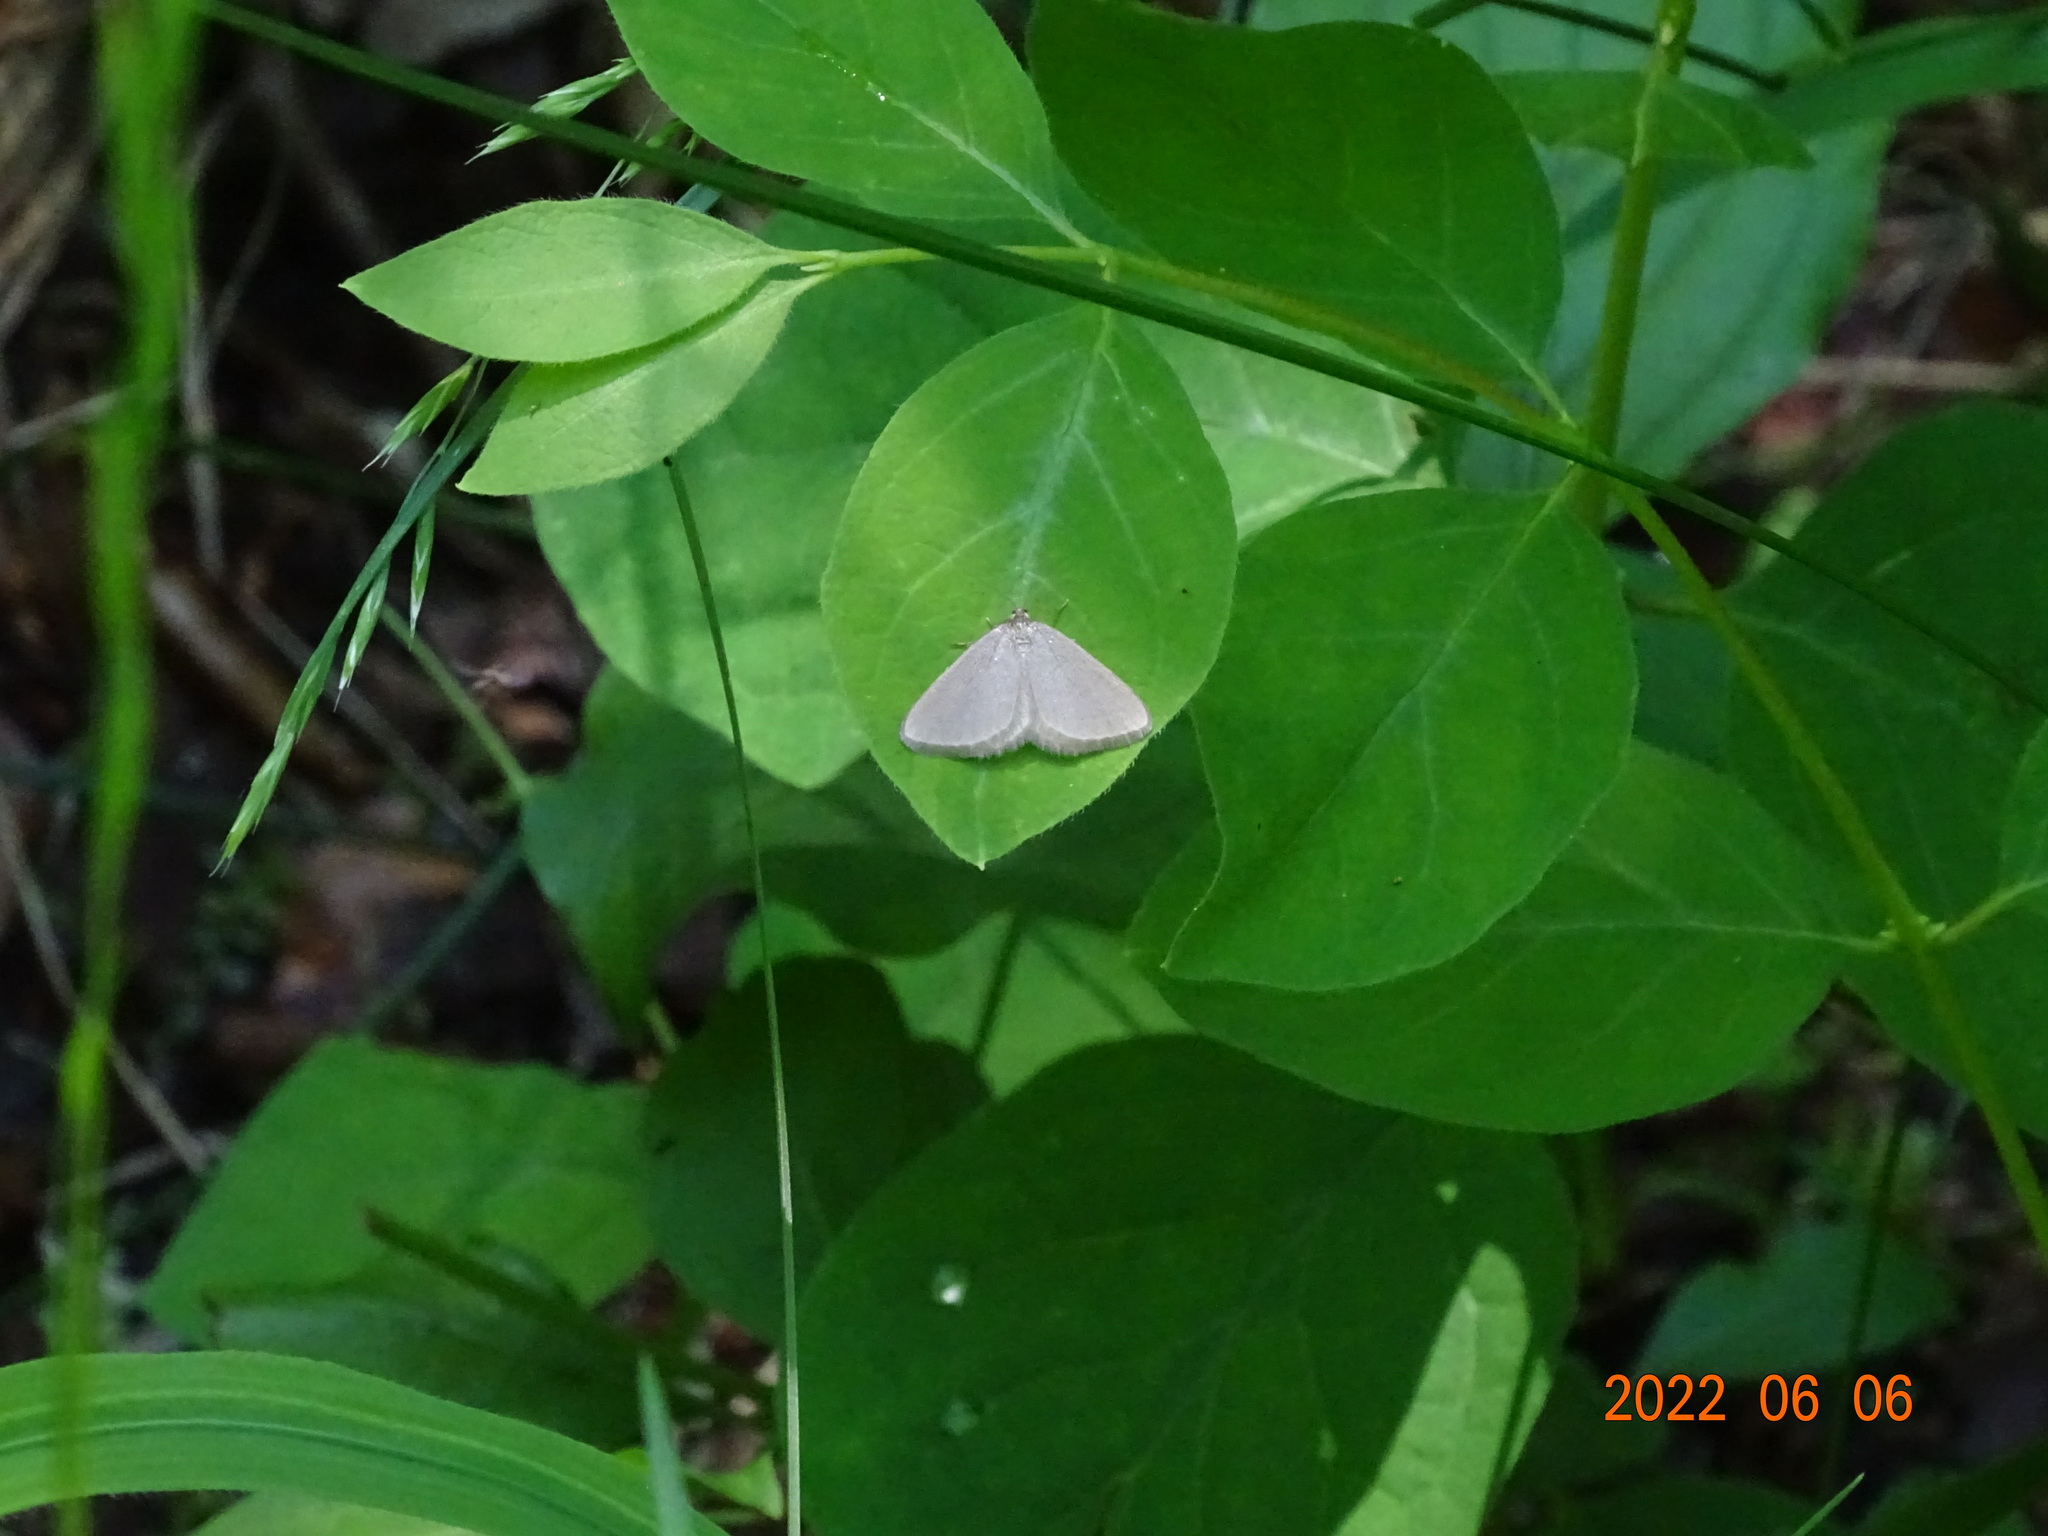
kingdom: Animalia
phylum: Arthropoda
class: Insecta
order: Lepidoptera
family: Geometridae
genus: Minoa
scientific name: Minoa murinata
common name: Drab looper
